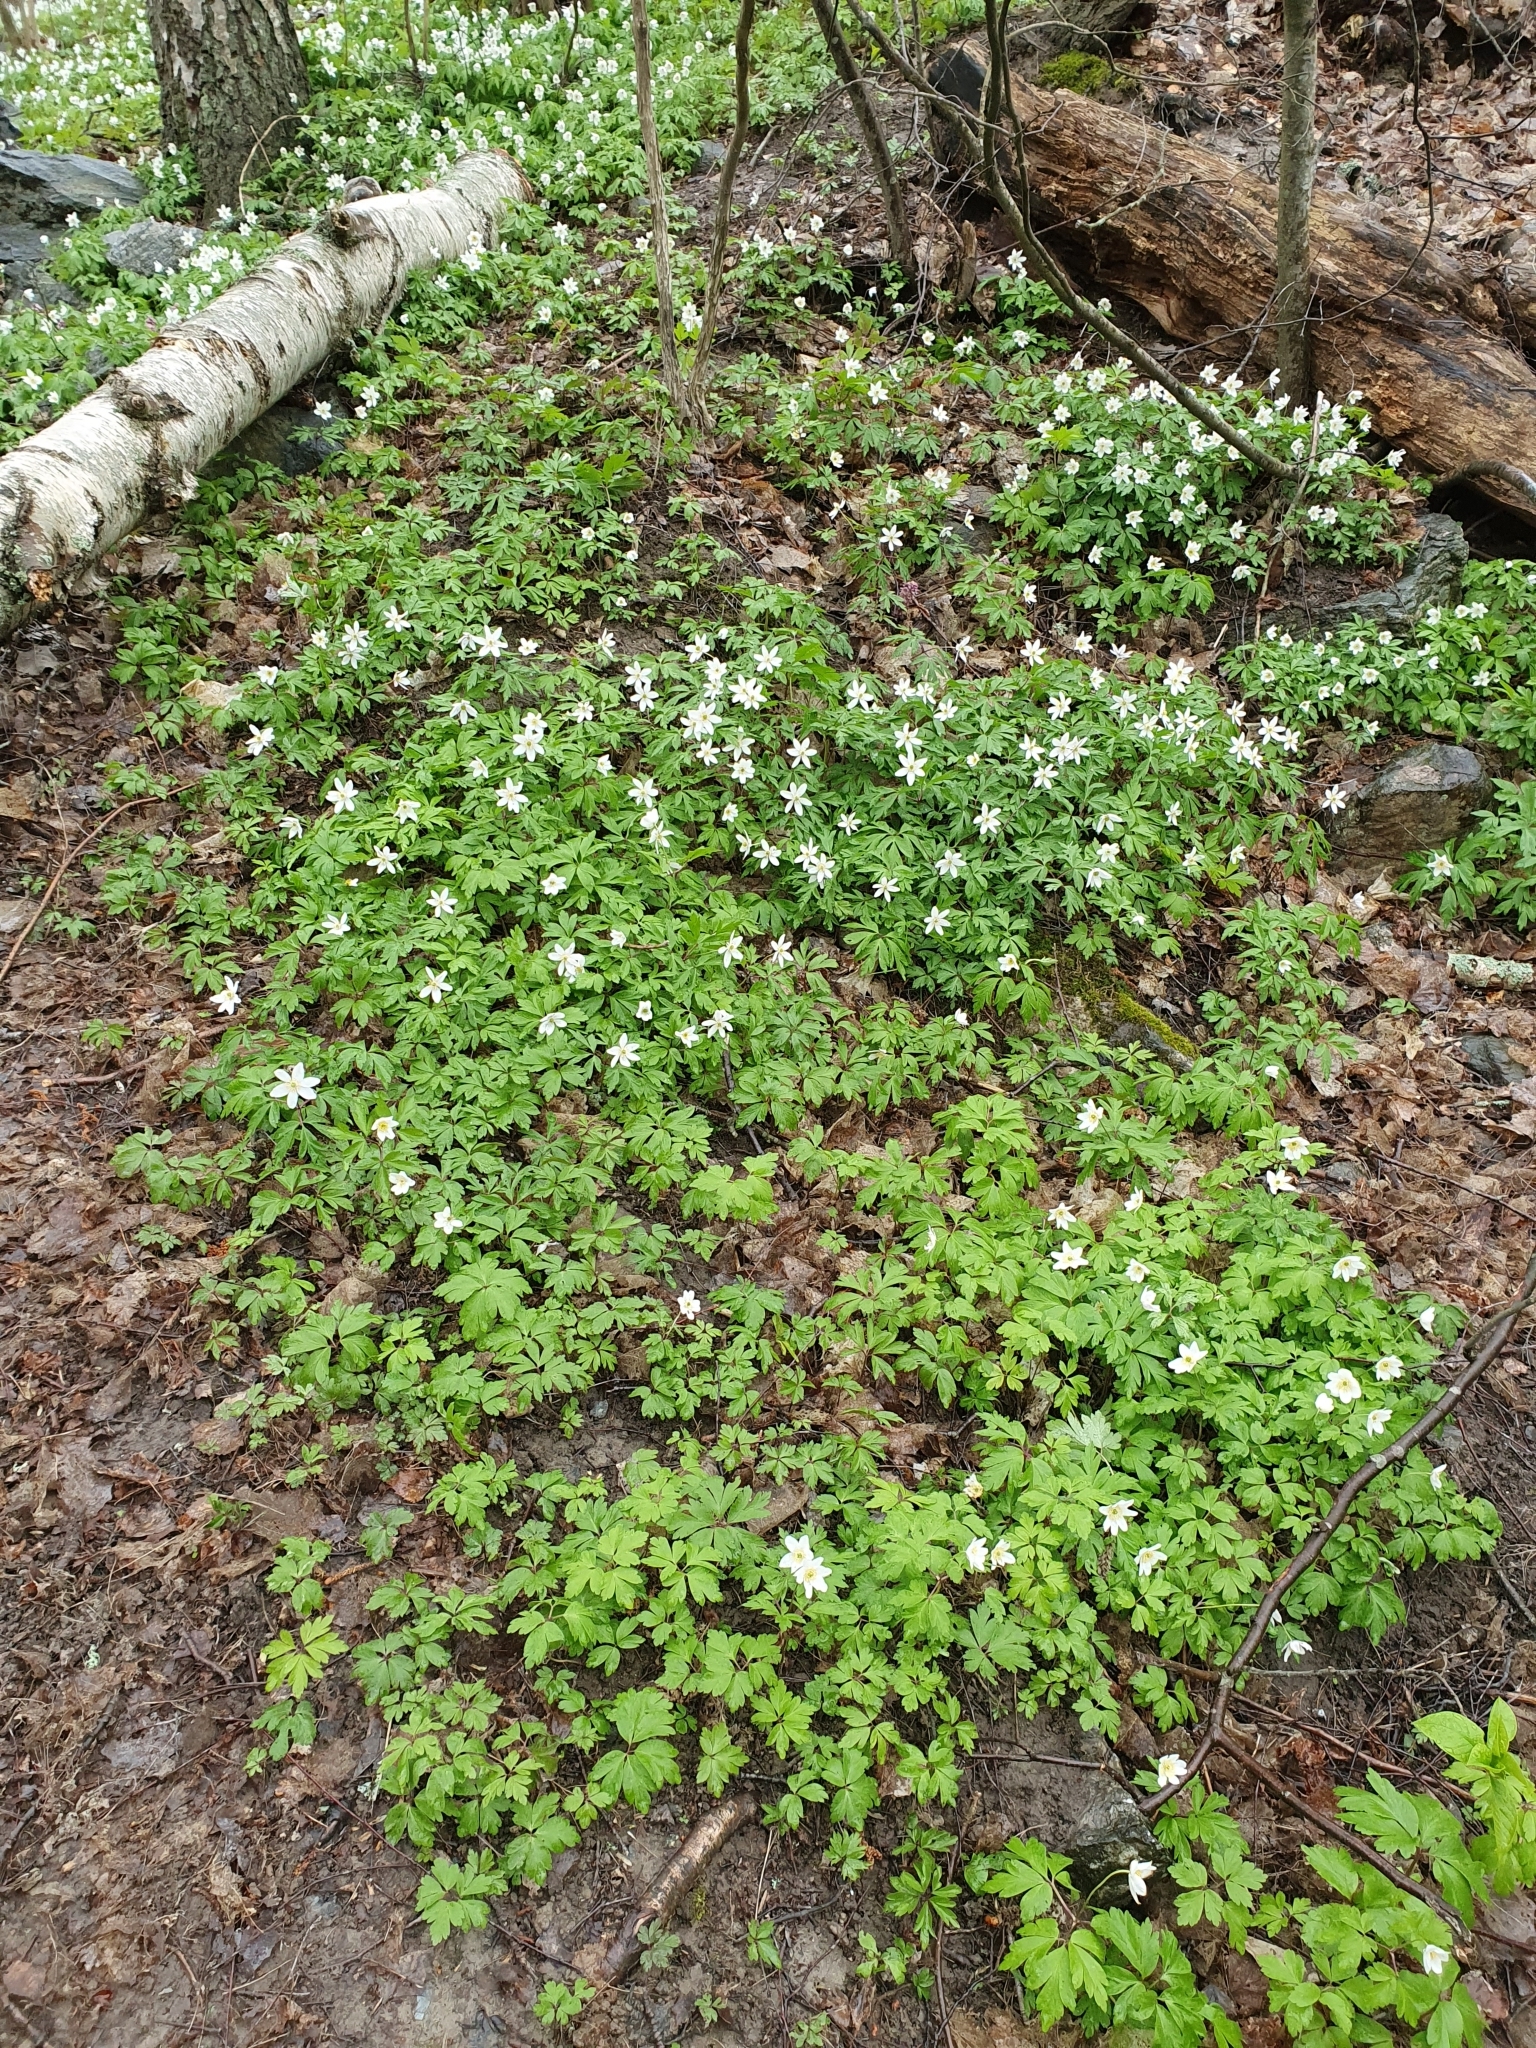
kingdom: Plantae
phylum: Tracheophyta
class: Magnoliopsida
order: Ranunculales
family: Ranunculaceae
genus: Anemone
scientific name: Anemone nemorosa
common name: Wood anemone
